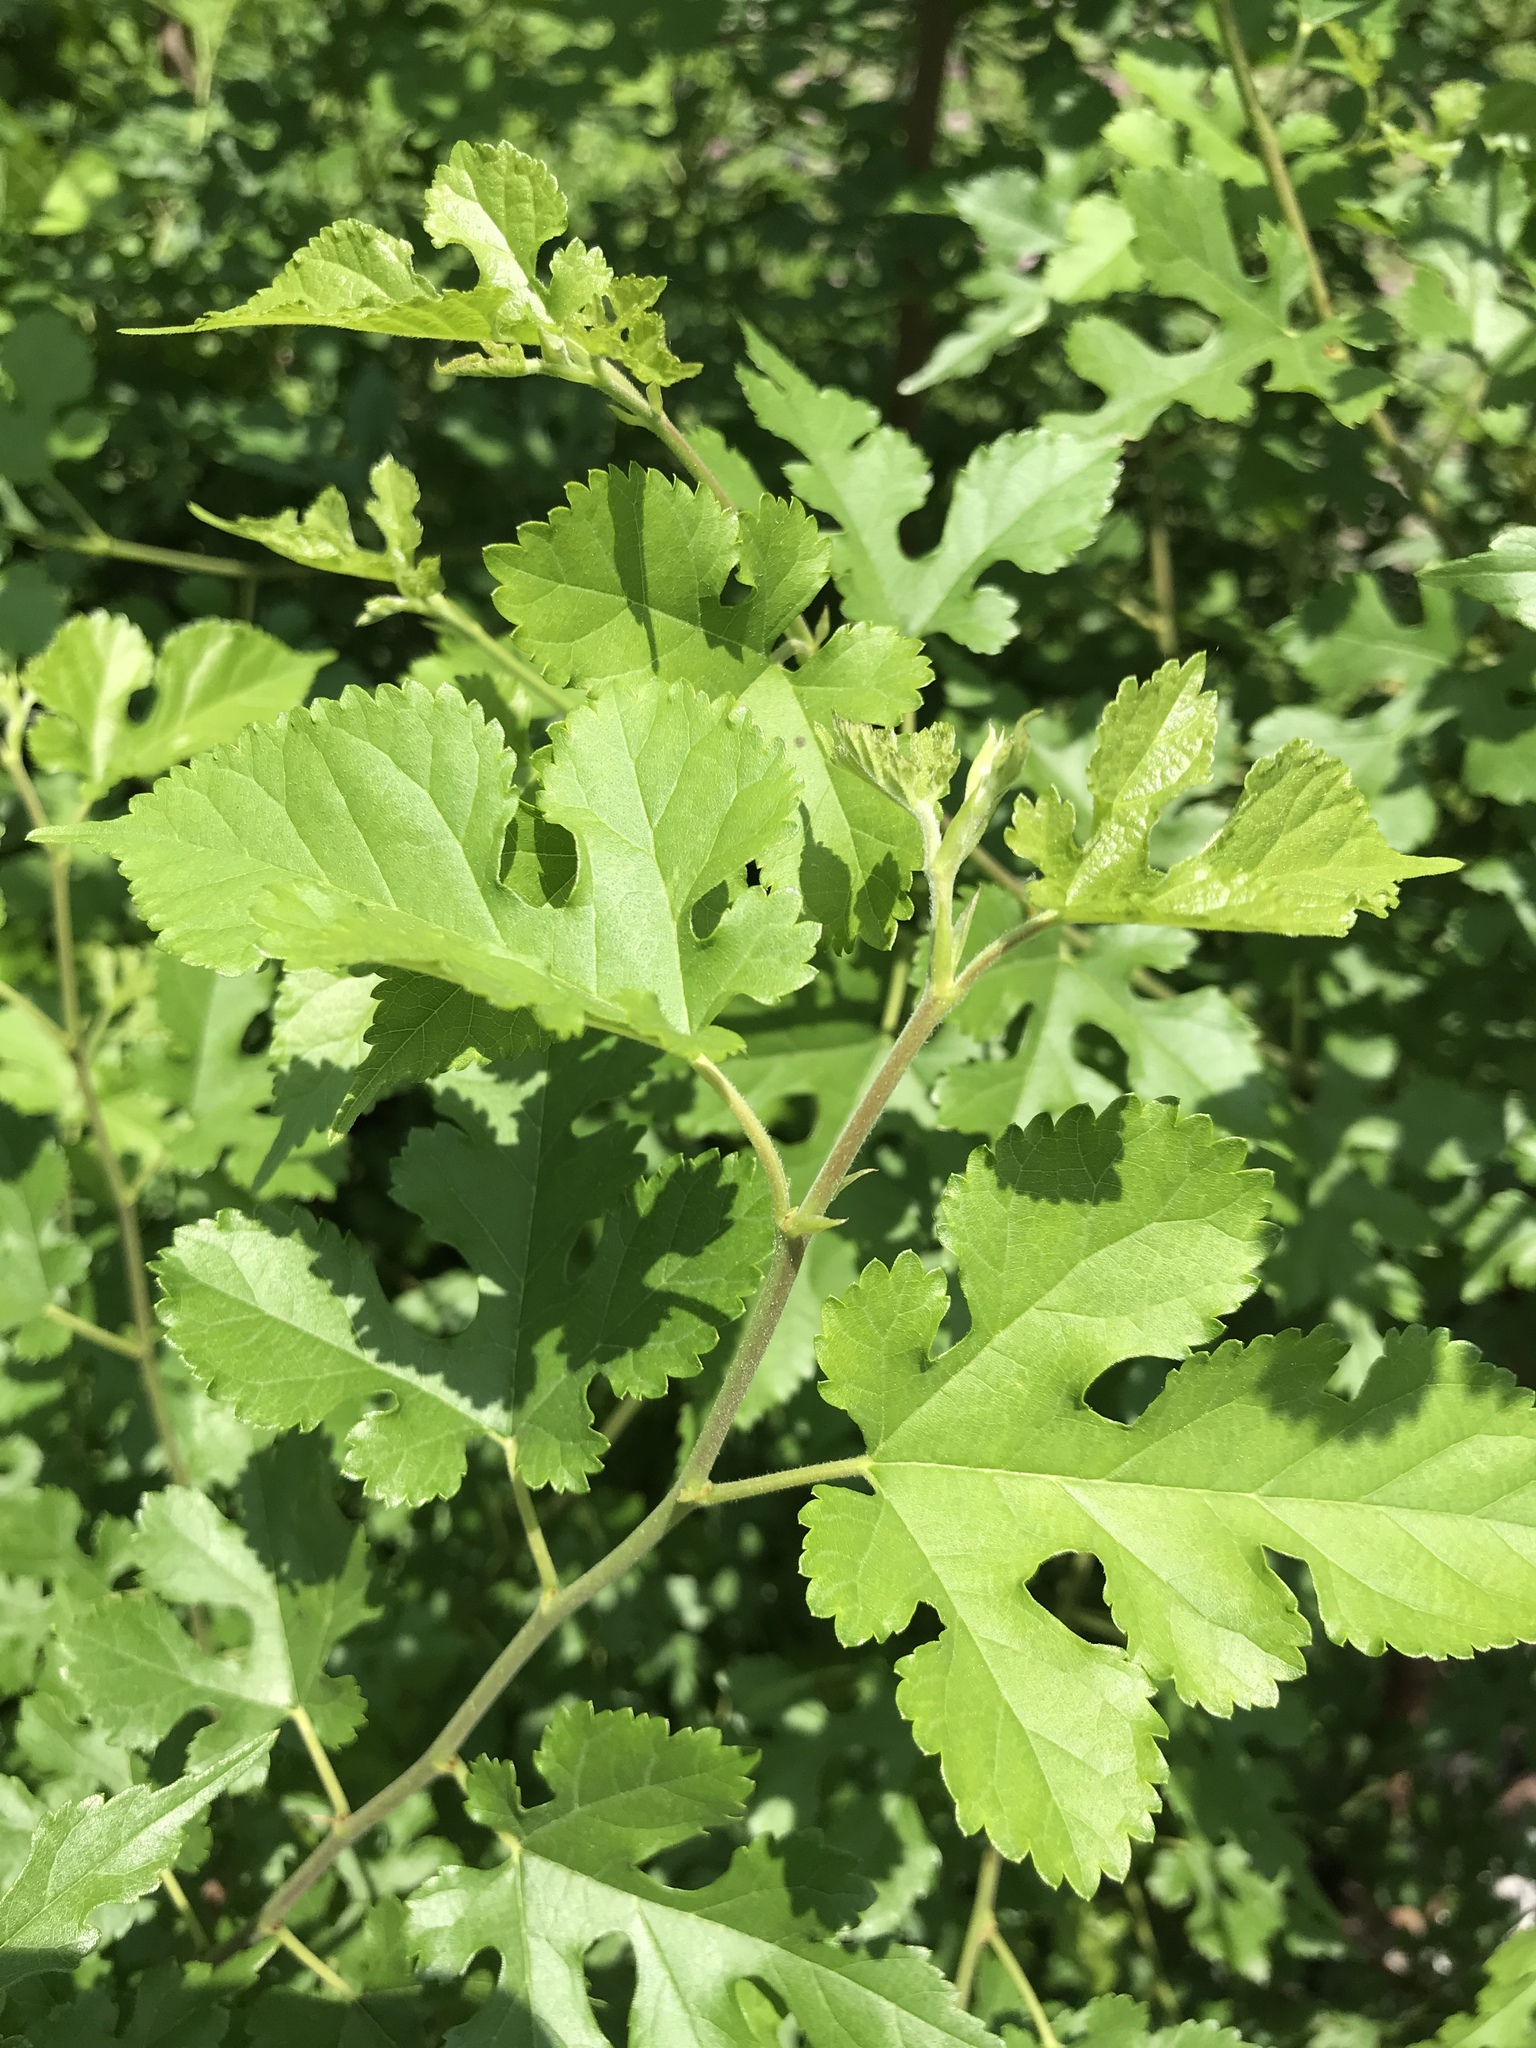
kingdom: Plantae
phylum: Tracheophyta
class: Magnoliopsida
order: Rosales
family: Moraceae
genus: Morus
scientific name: Morus alba
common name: White mulberry
